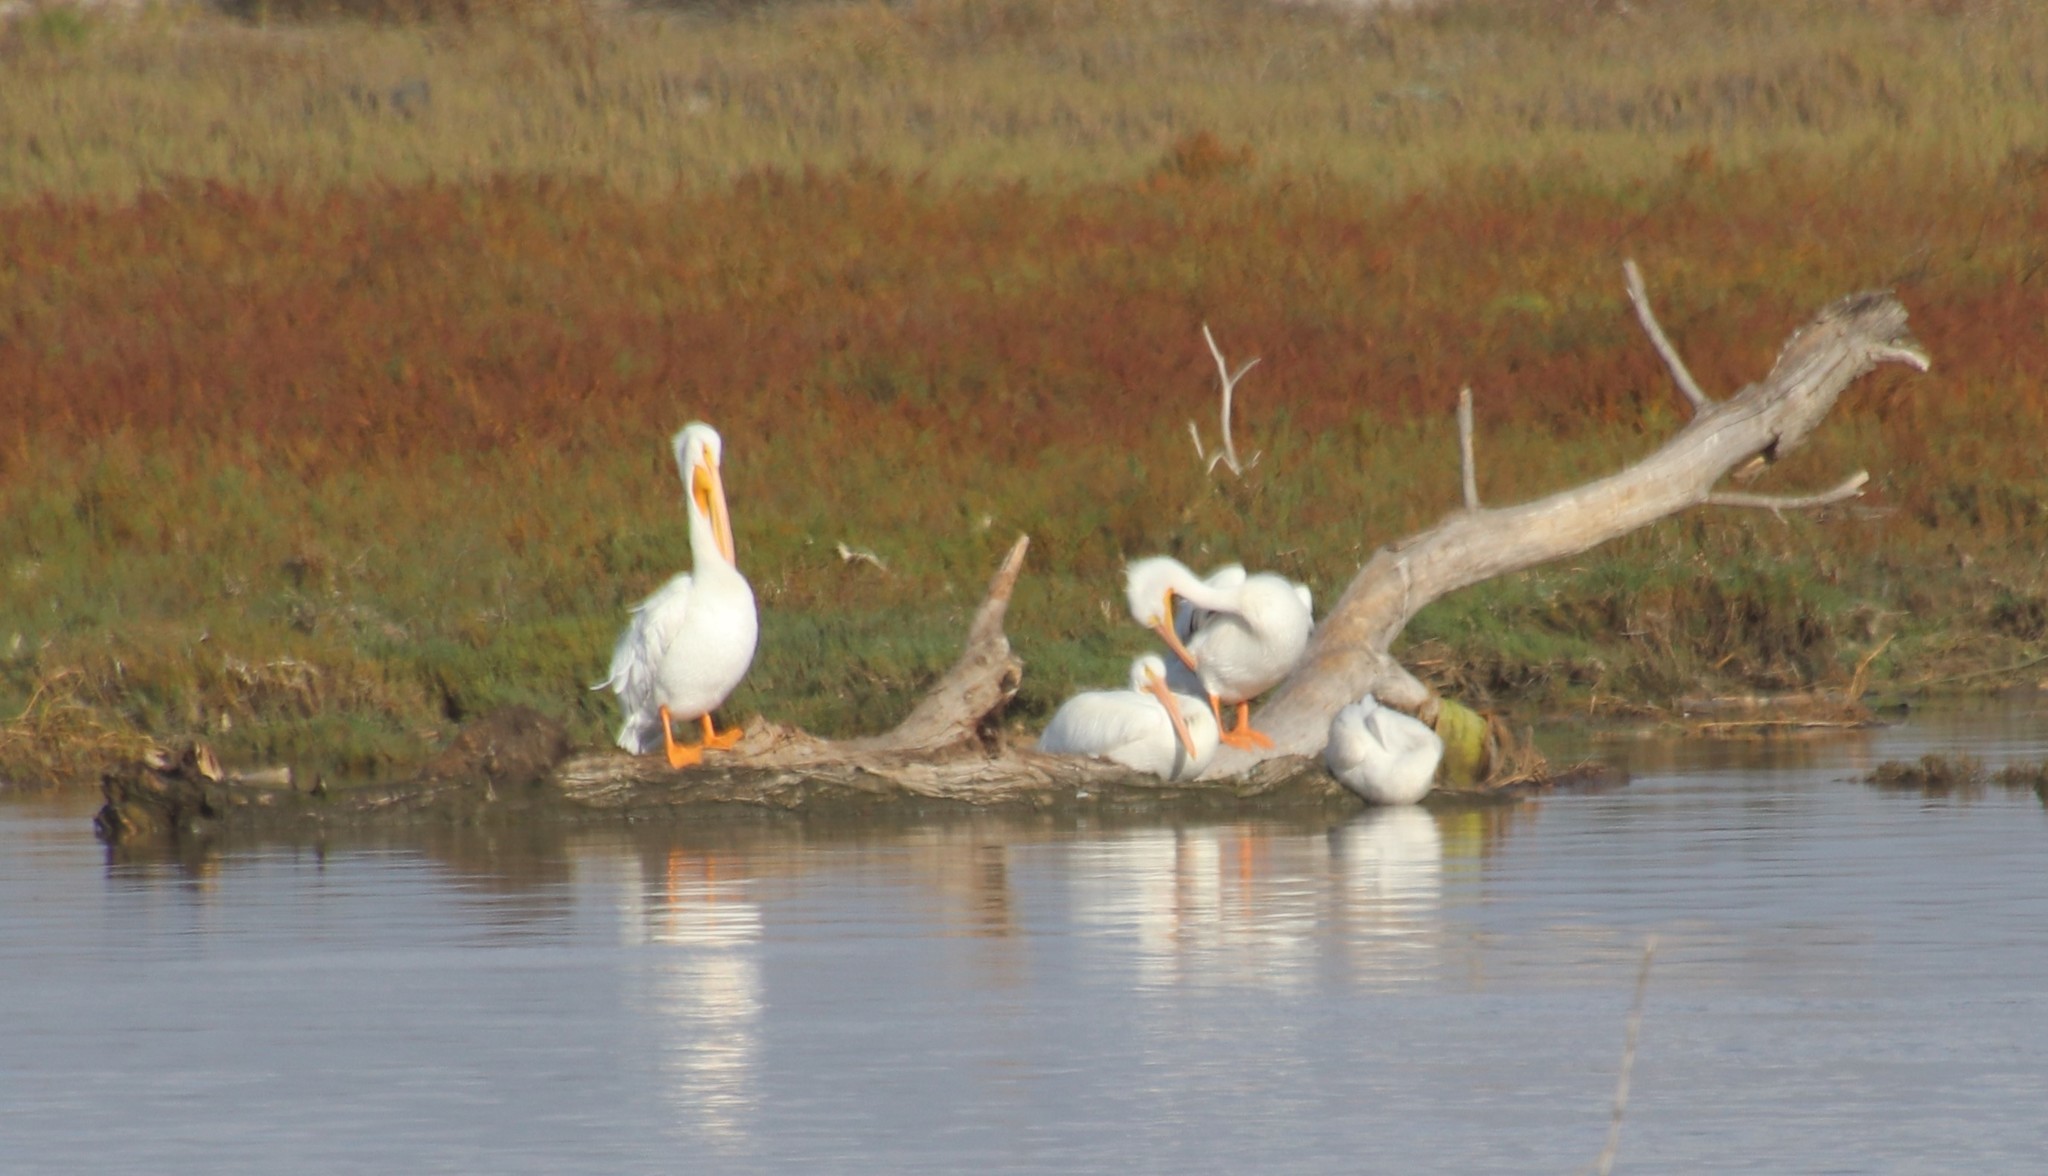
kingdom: Animalia
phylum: Chordata
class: Aves
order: Pelecaniformes
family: Pelecanidae
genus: Pelecanus
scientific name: Pelecanus erythrorhynchos
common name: American white pelican
